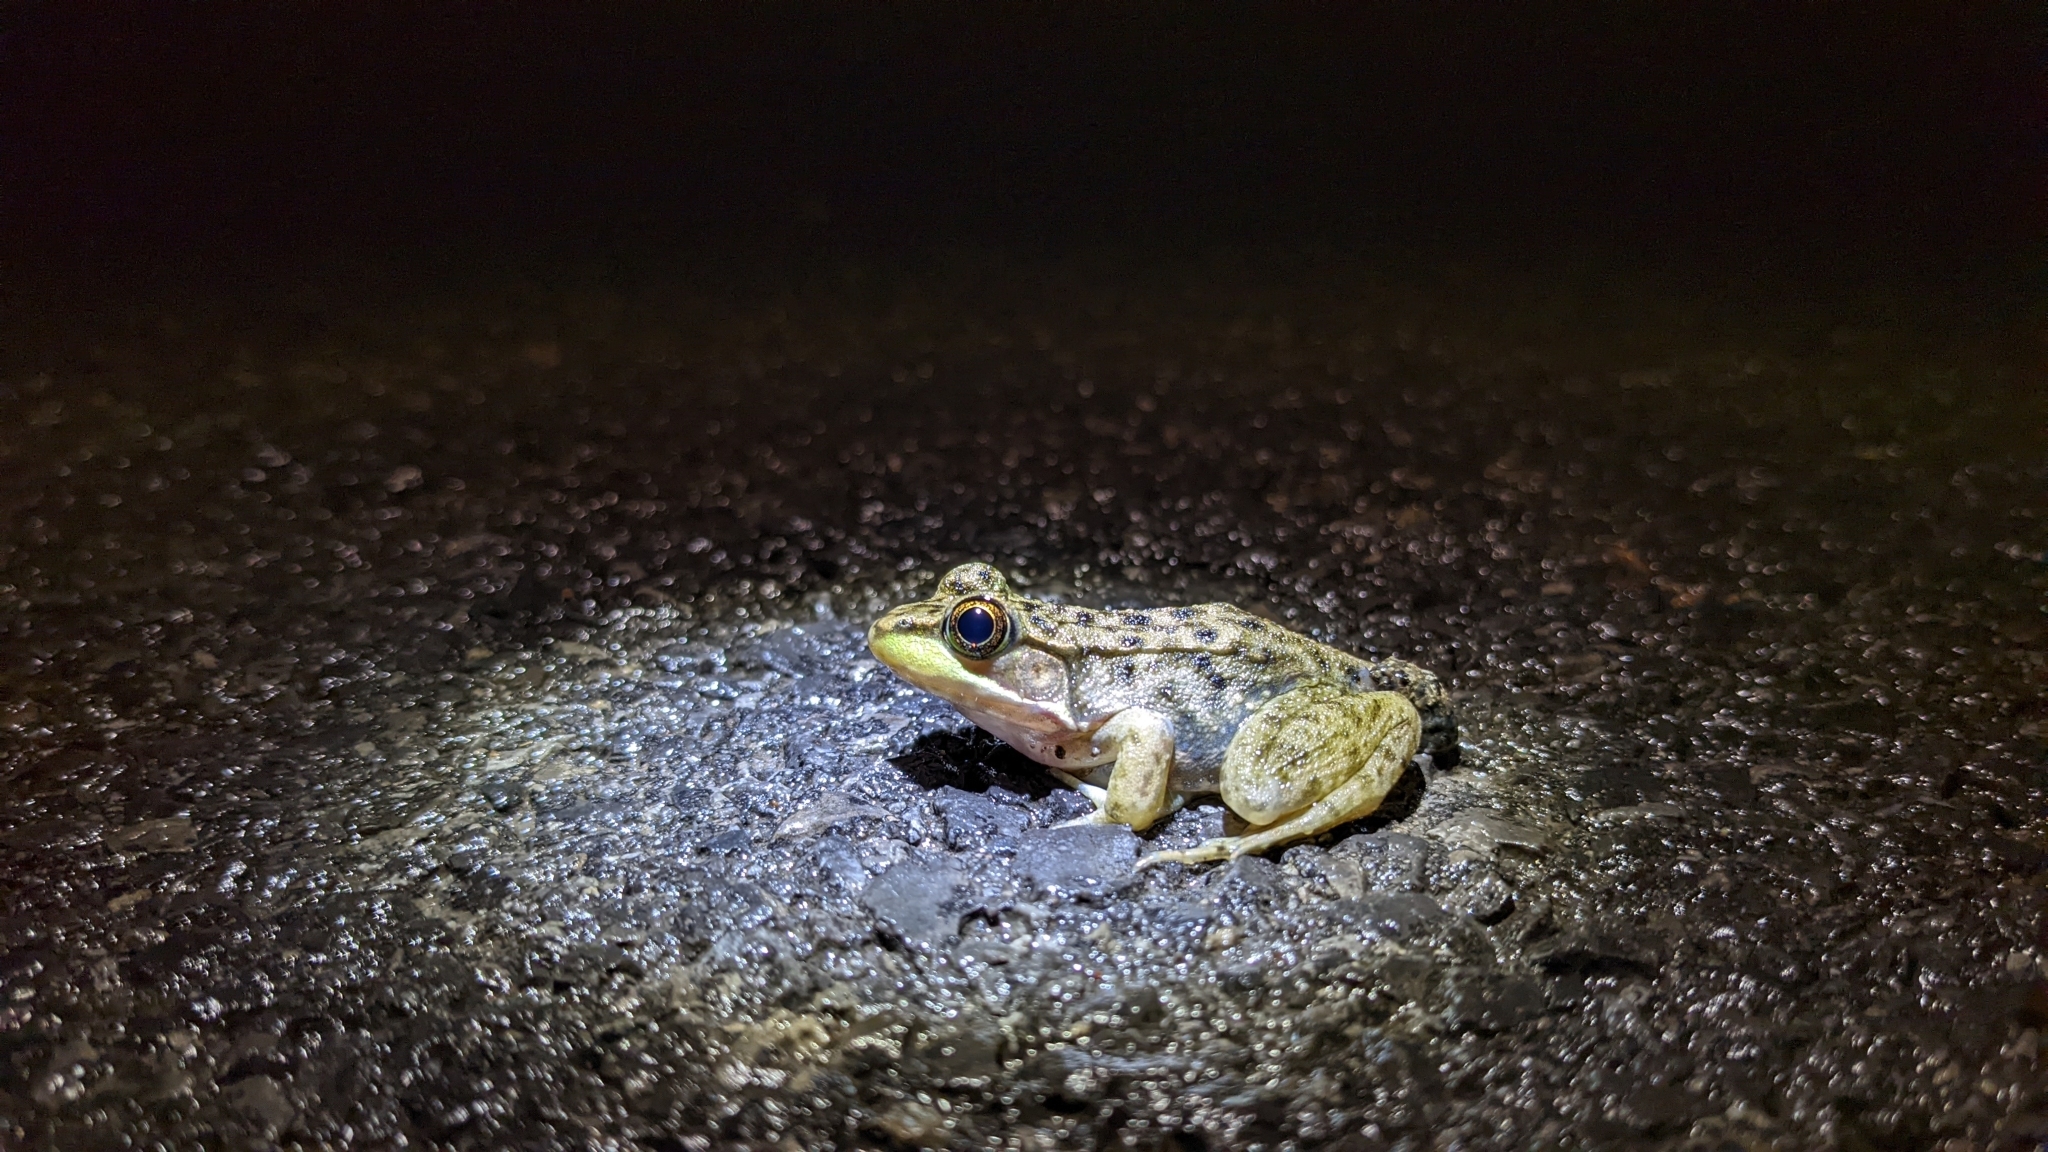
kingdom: Animalia
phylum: Chordata
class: Amphibia
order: Anura
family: Ranidae
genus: Lithobates
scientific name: Lithobates clamitans
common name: Green frog
